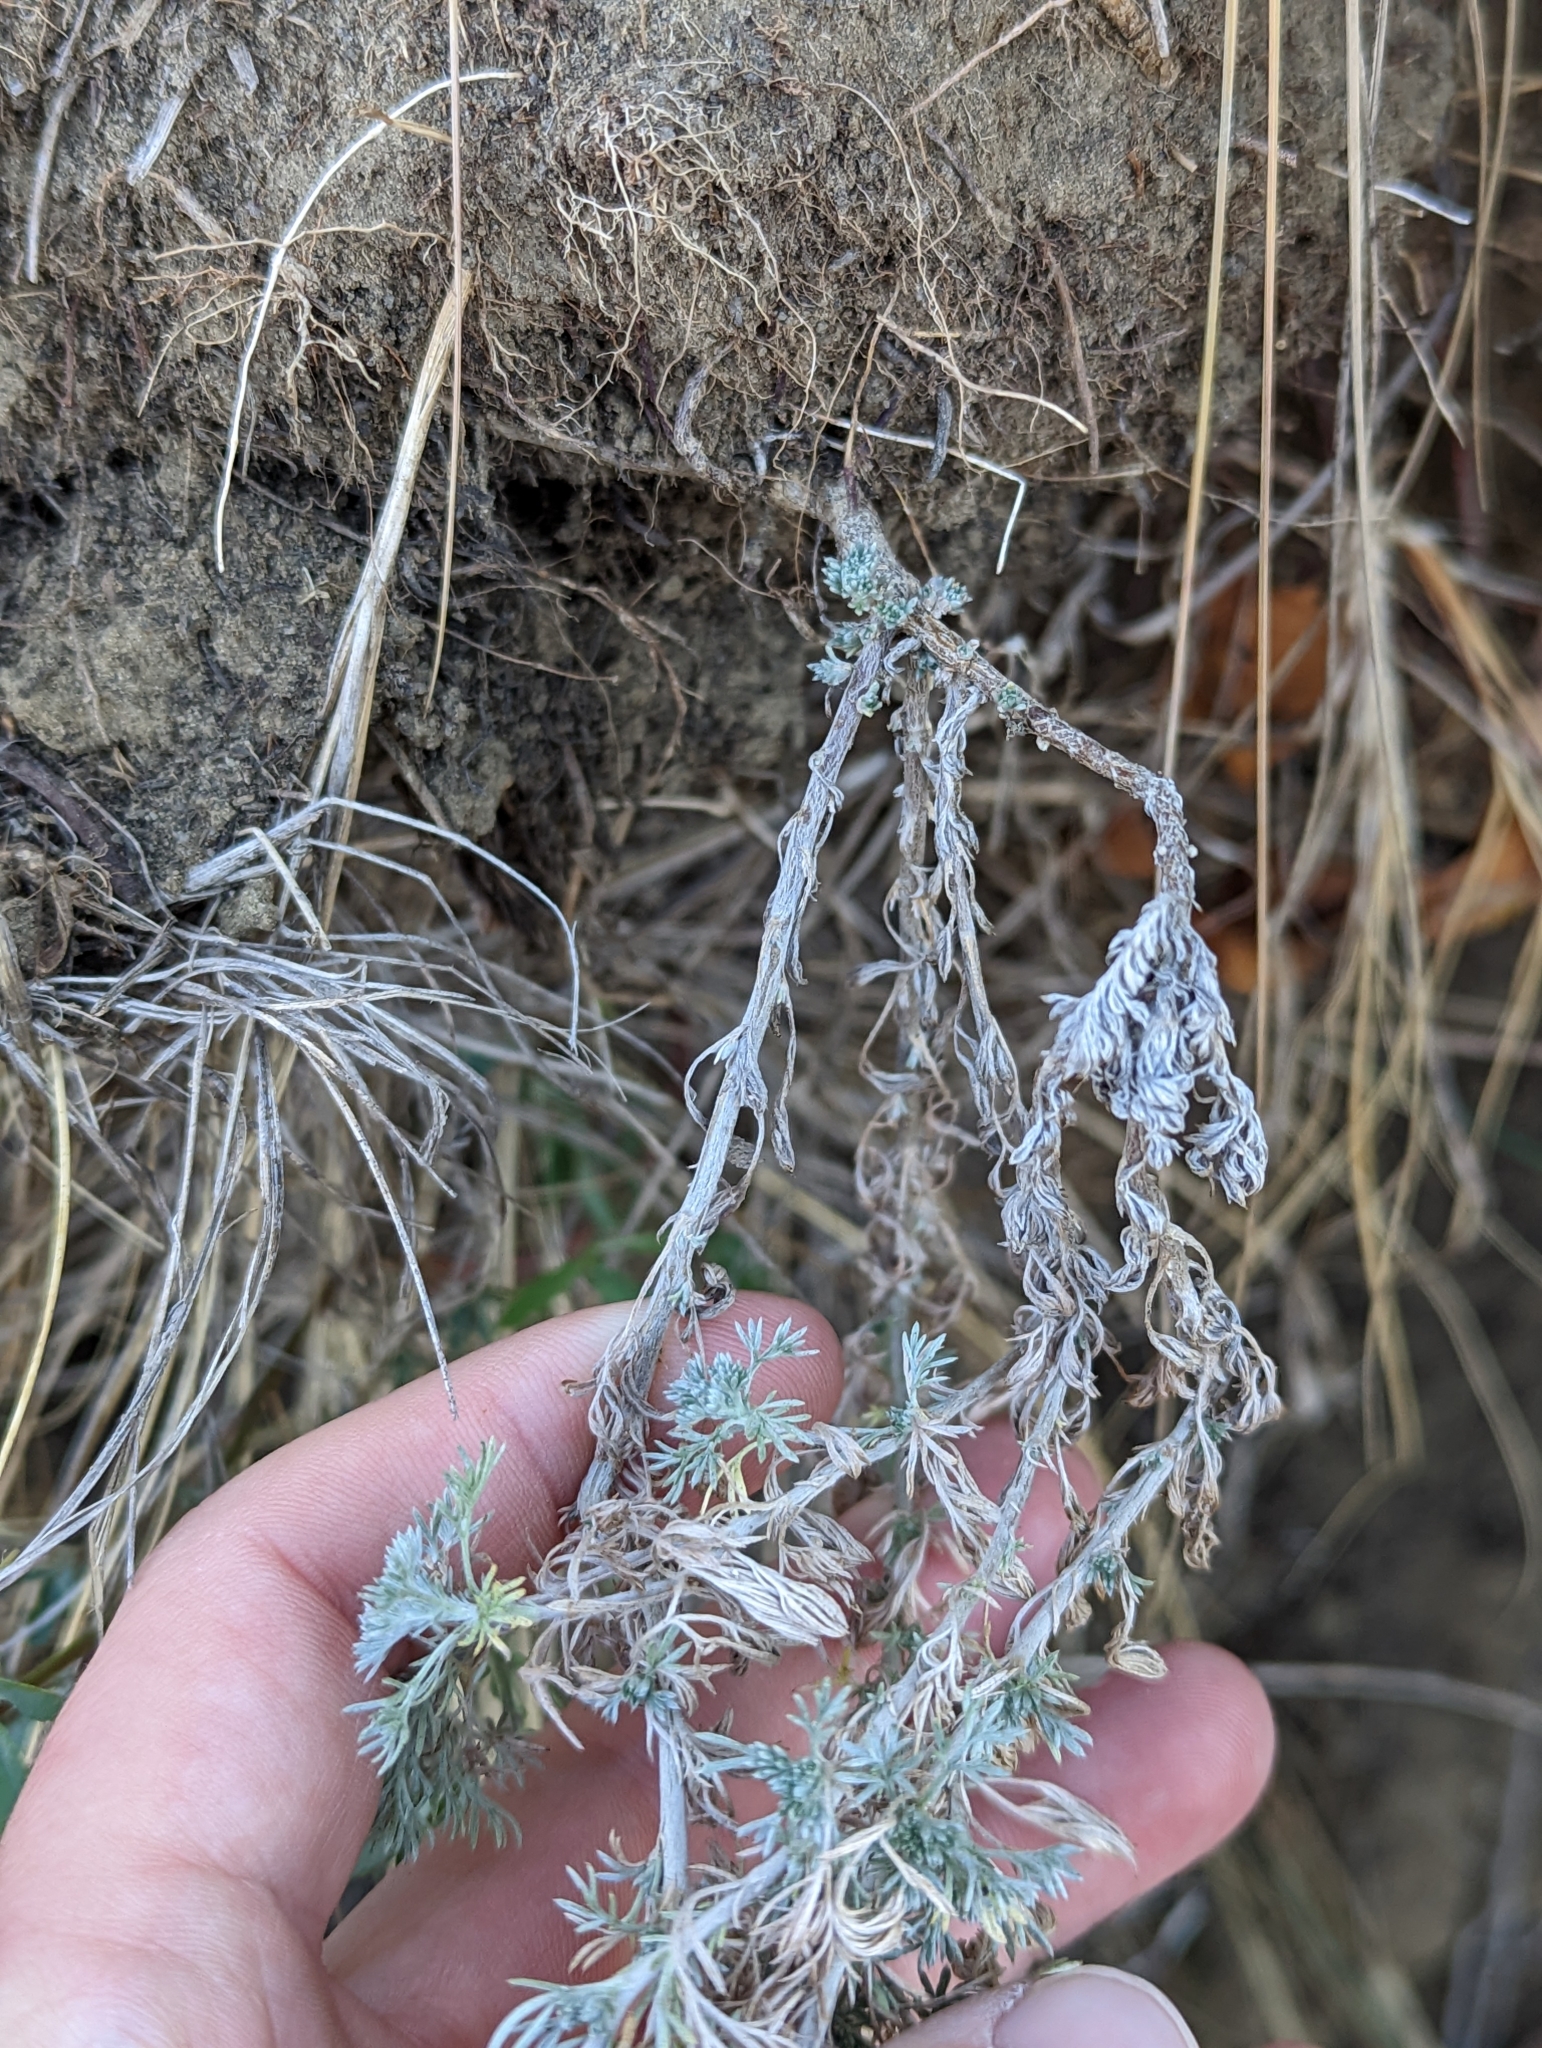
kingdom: Plantae
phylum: Tracheophyta
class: Magnoliopsida
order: Asterales
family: Asteraceae
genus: Artemisia
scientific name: Artemisia frigida
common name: Prairie sagewort
